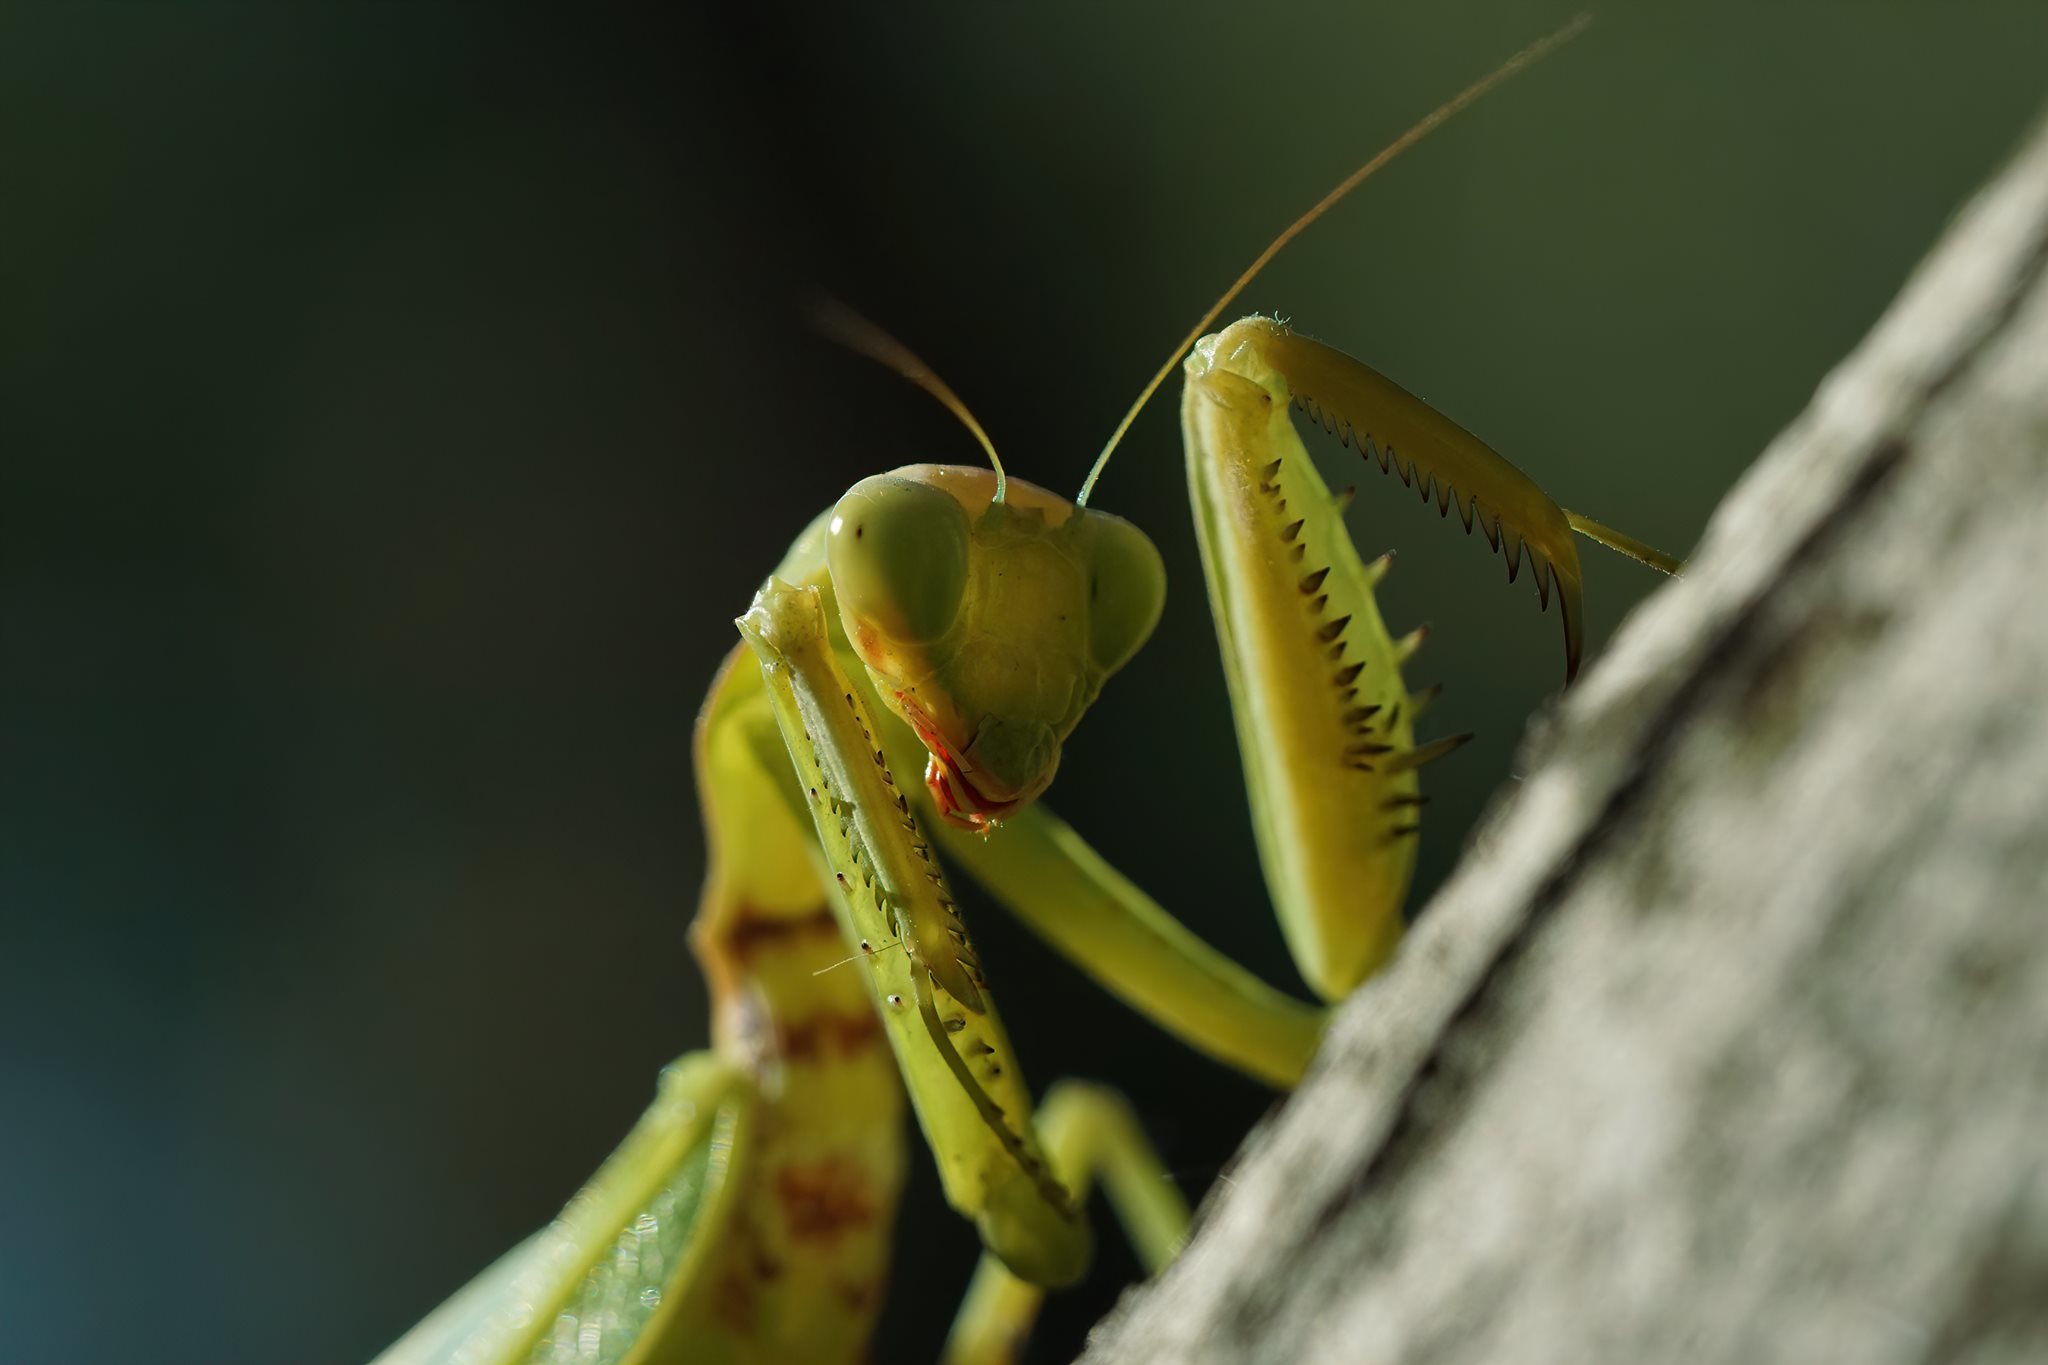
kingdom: Animalia
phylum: Arthropoda
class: Insecta
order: Mantodea
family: Mantidae
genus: Hierodula
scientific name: Hierodula transcaucasica
